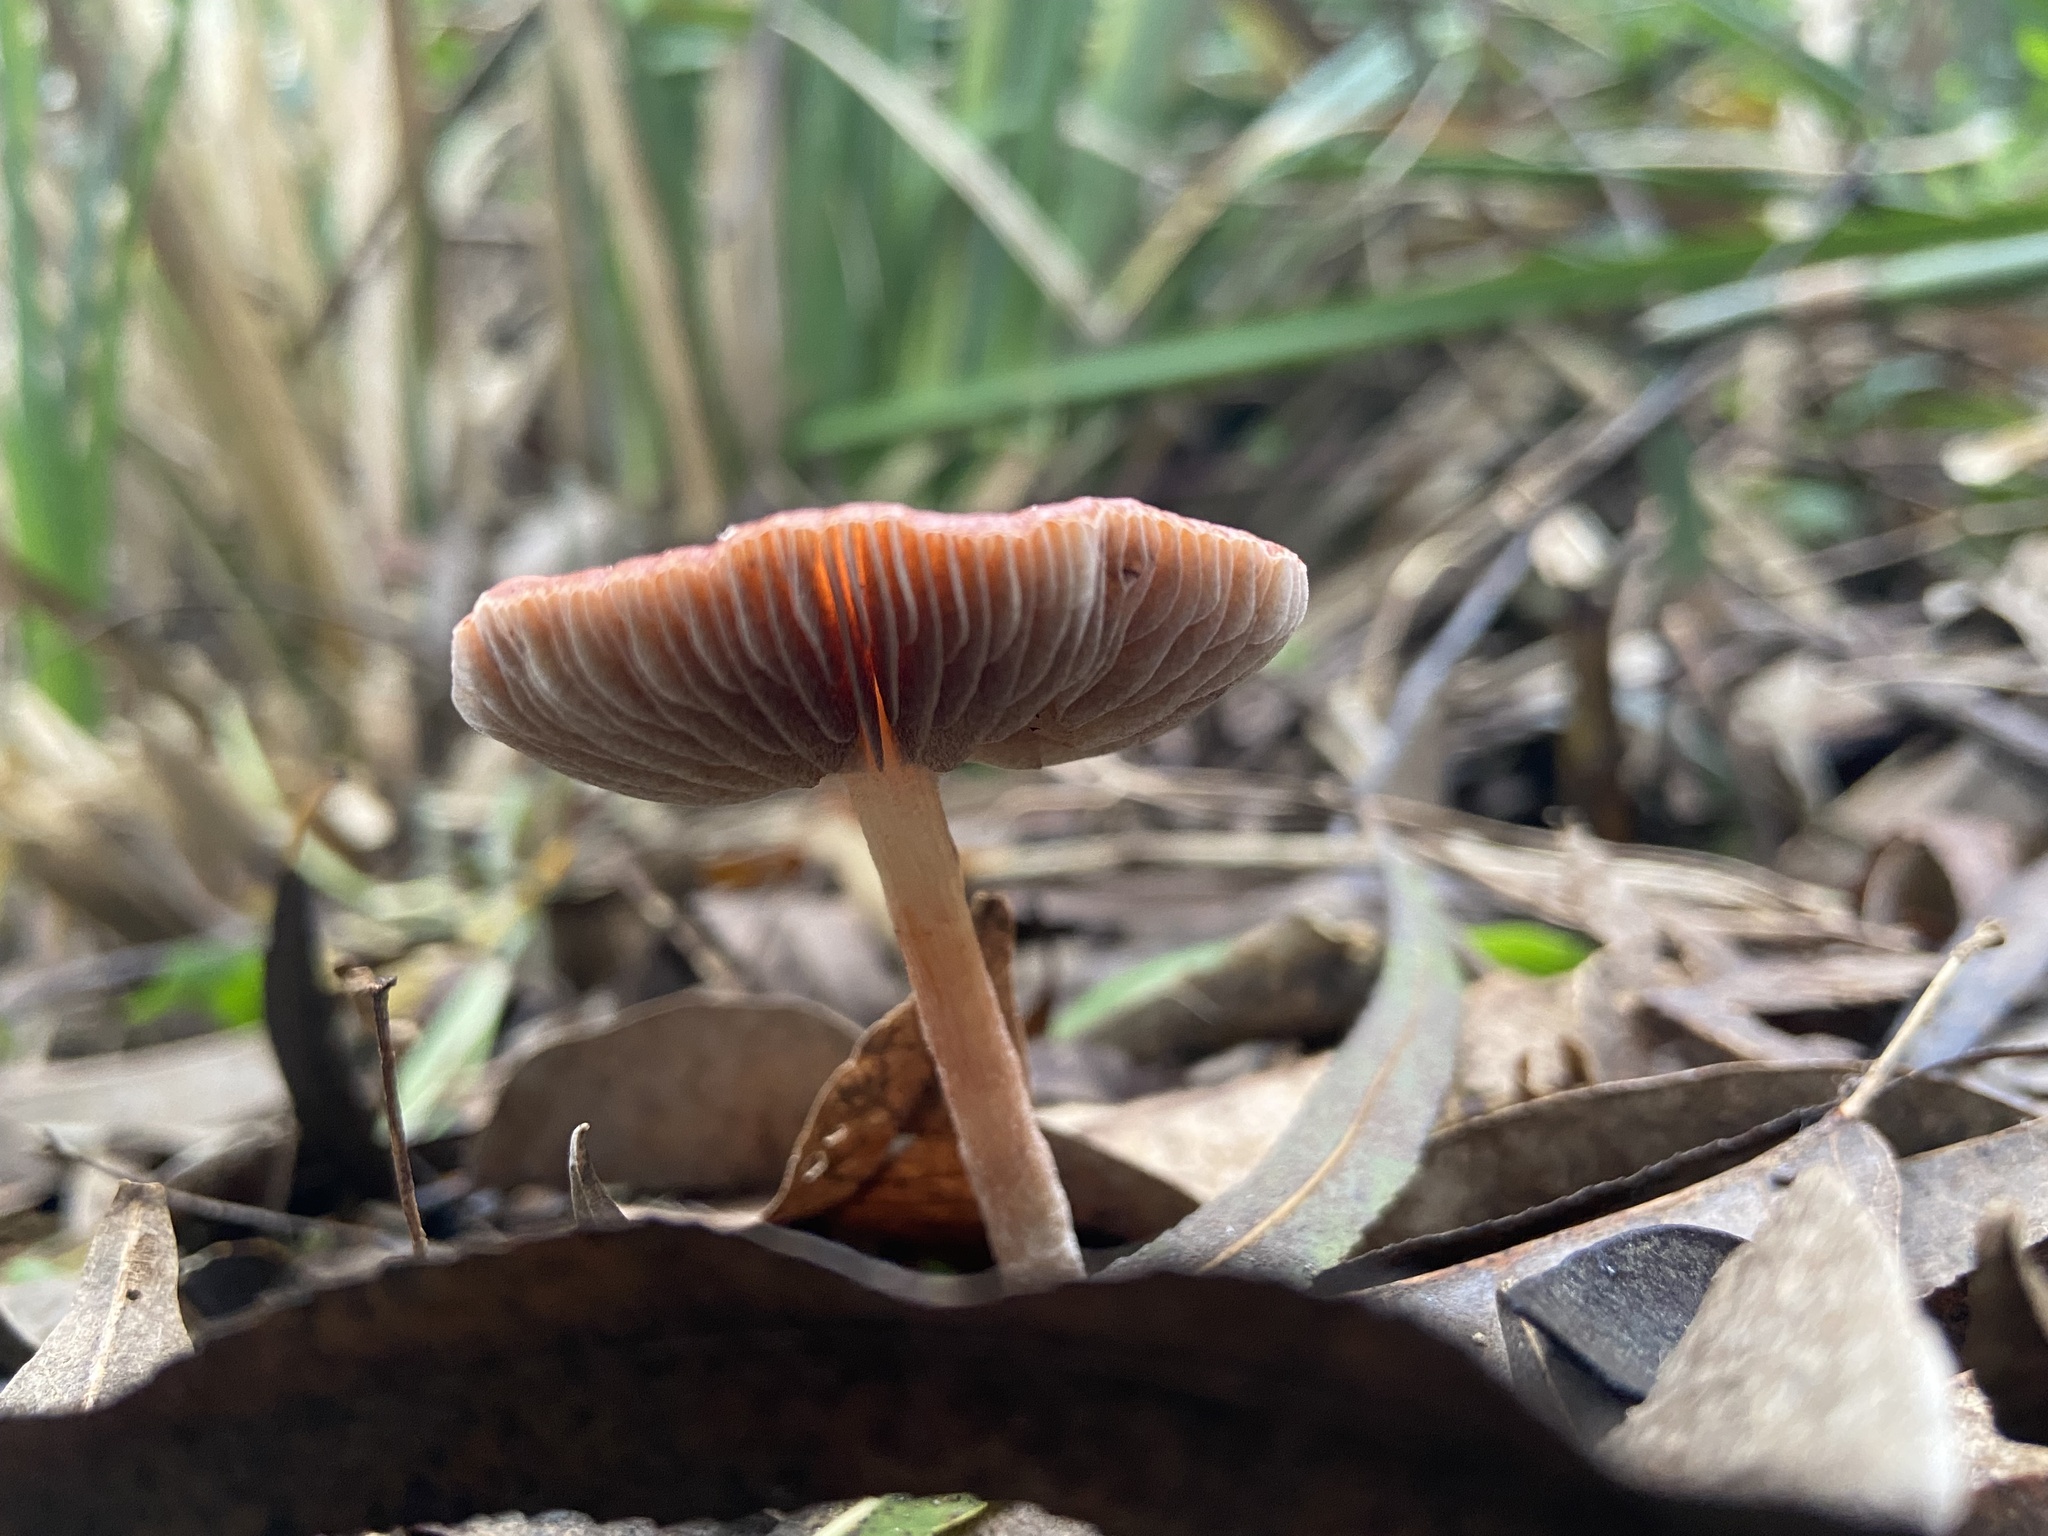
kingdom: Fungi
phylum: Basidiomycota
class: Agaricomycetes
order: Agaricales
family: Strophariaceae
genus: Leratiomyces
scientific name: Leratiomyces ceres
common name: Redlead roundhead
